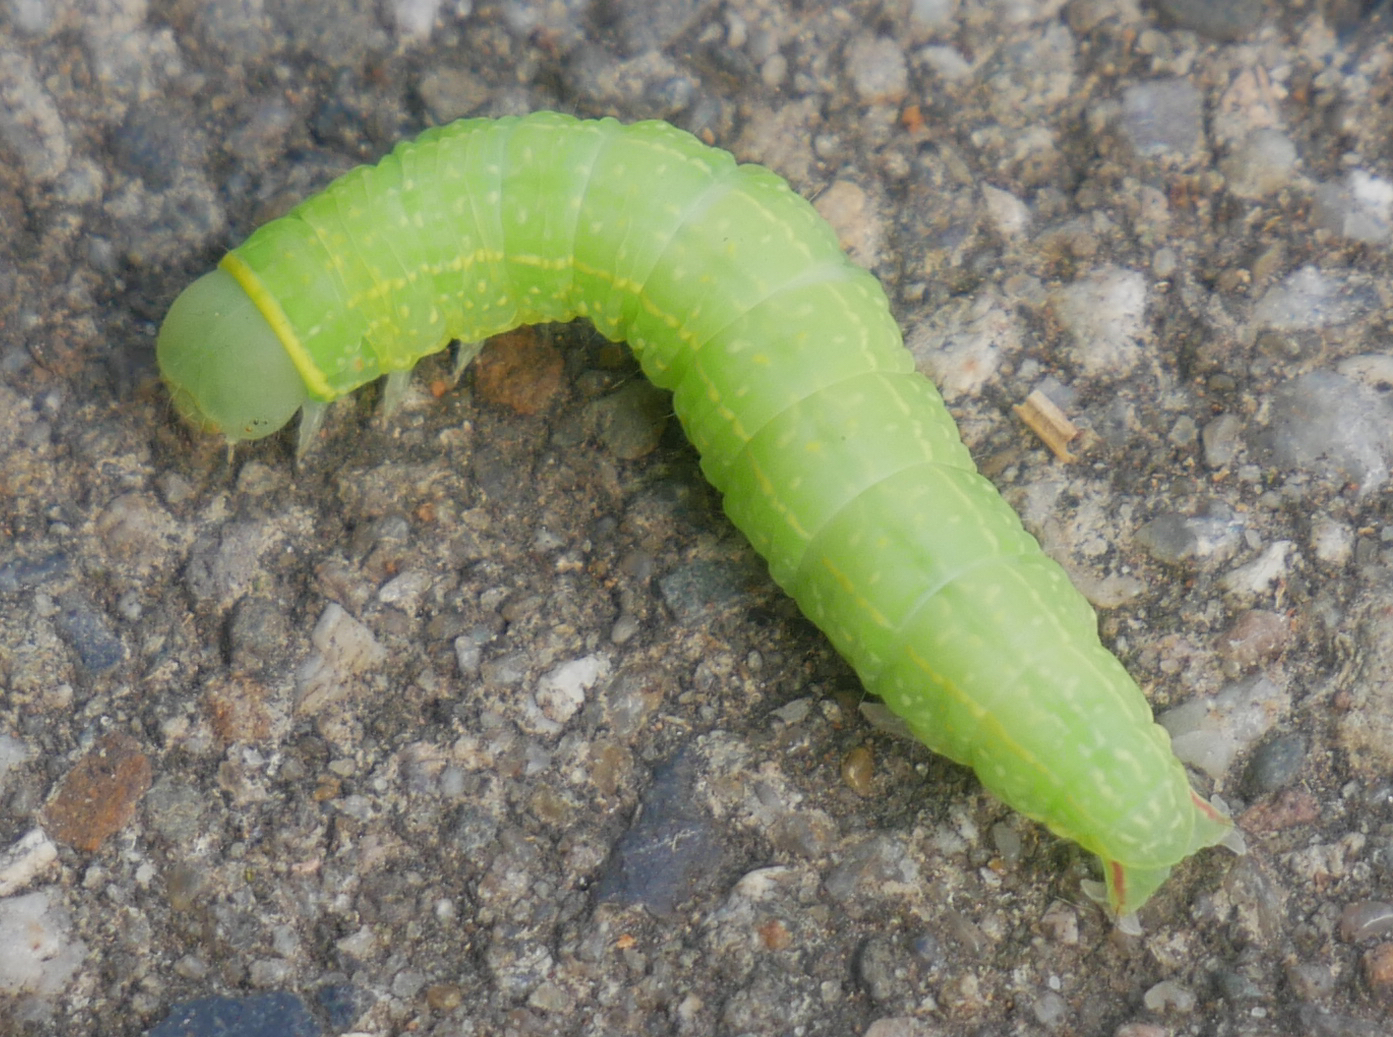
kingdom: Animalia
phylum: Arthropoda
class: Insecta
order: Lepidoptera
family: Nolidae
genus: Pseudoips
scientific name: Pseudoips prasinana
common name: Green silver-lines
